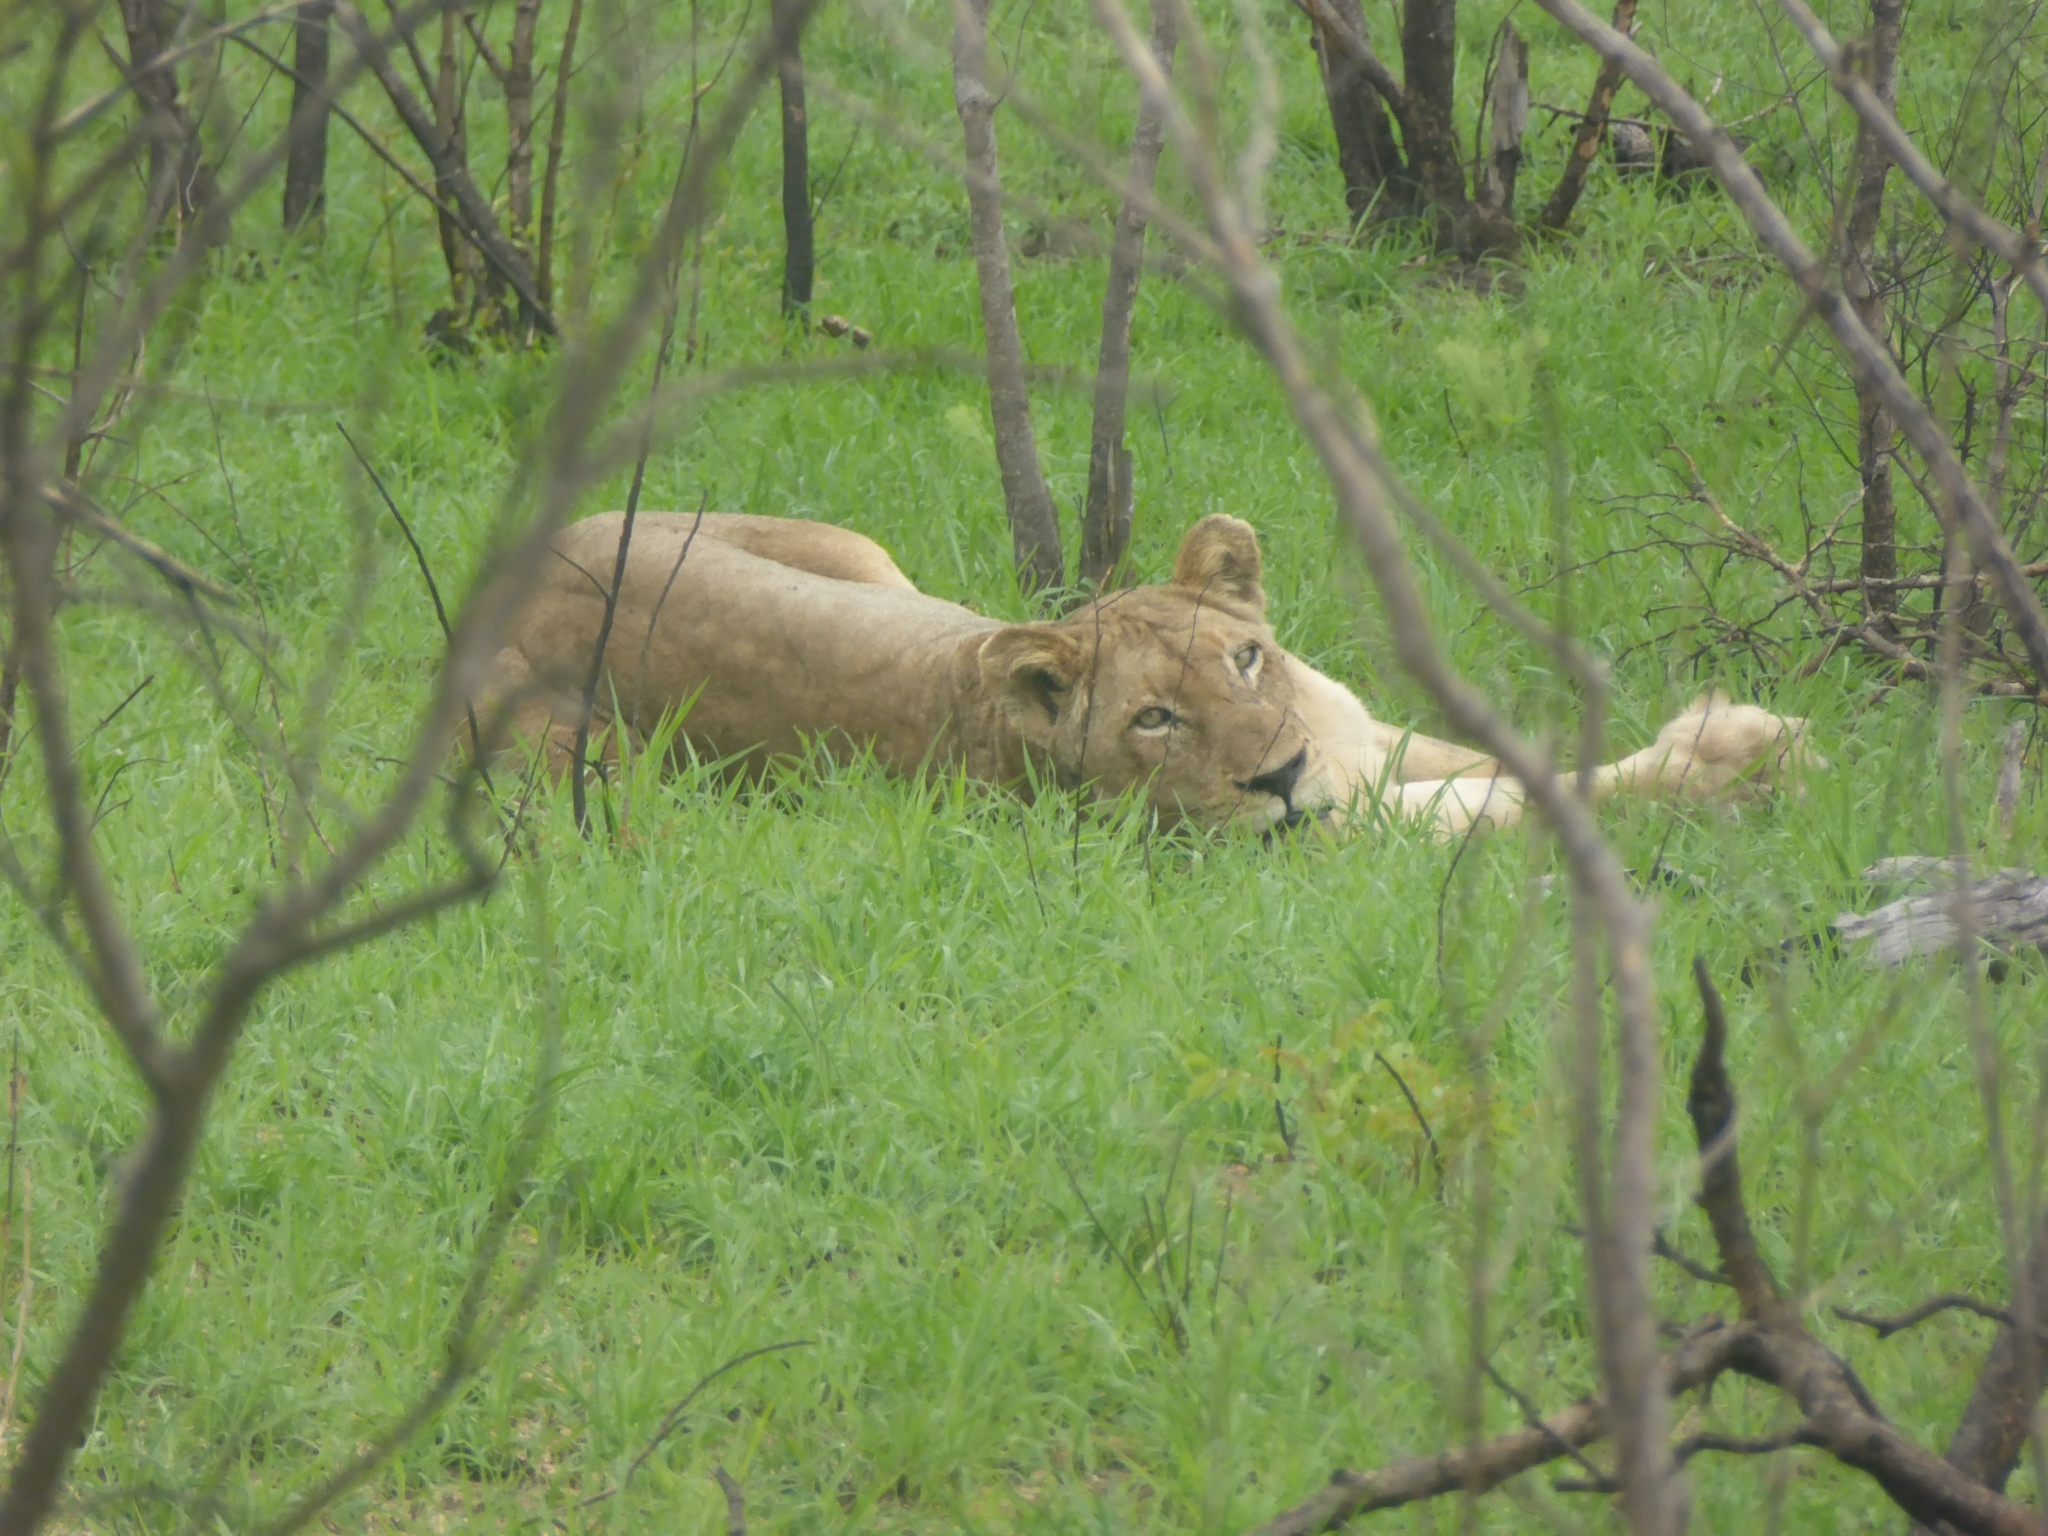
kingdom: Animalia
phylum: Chordata
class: Mammalia
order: Carnivora
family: Felidae
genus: Panthera
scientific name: Panthera leo
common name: Lion
